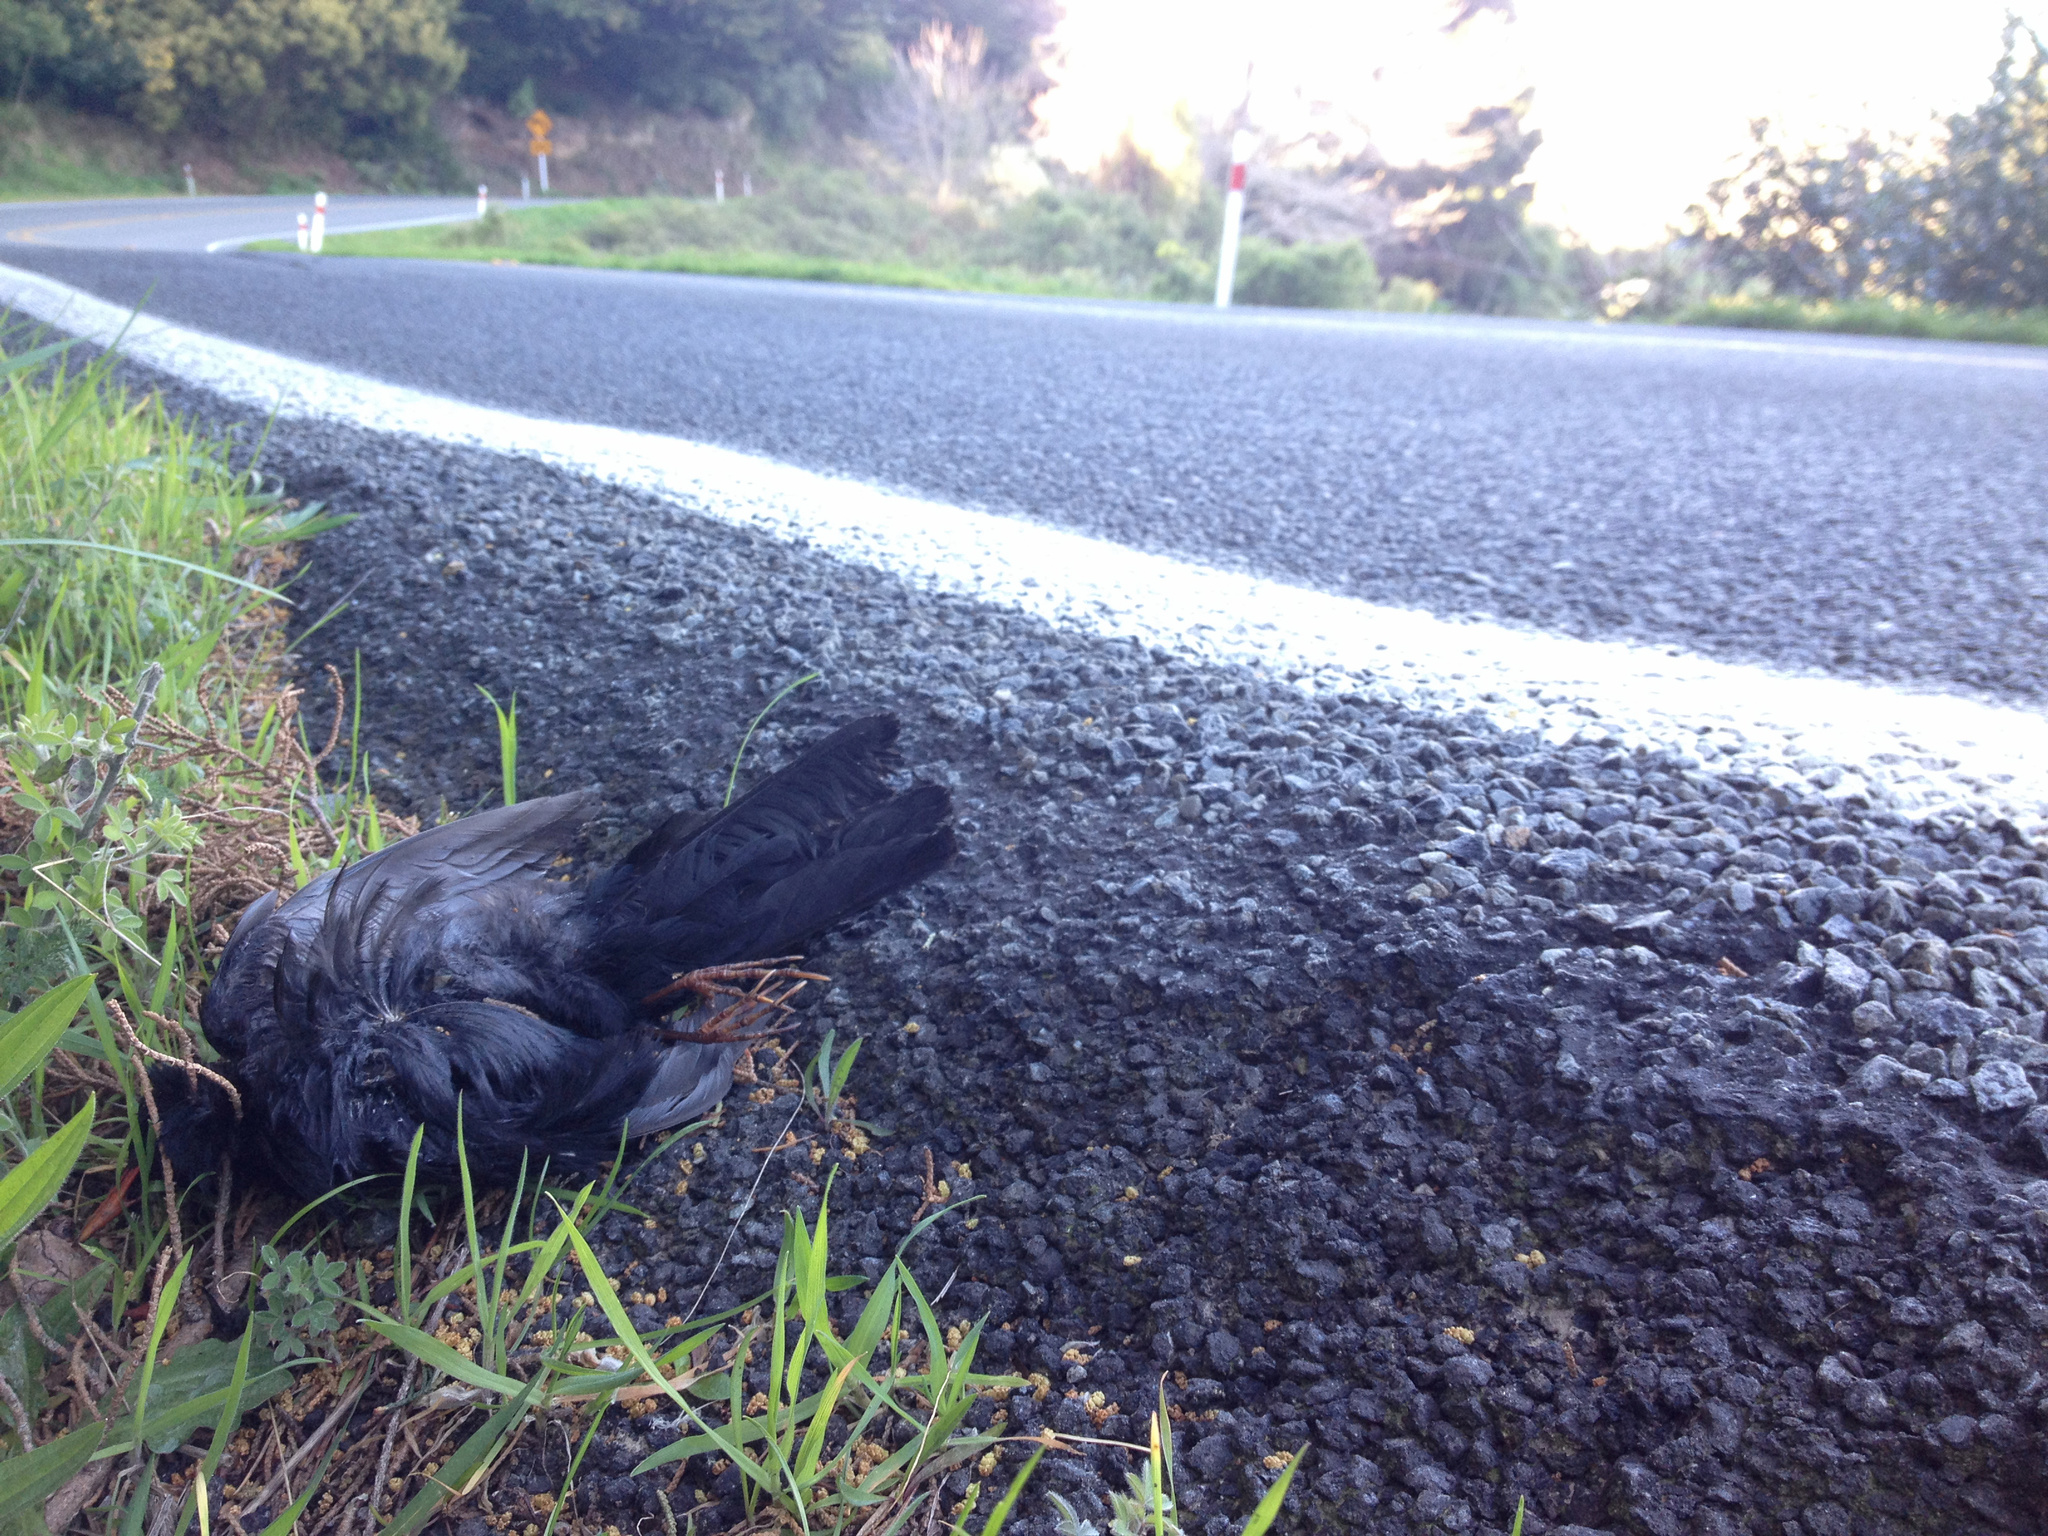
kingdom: Animalia
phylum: Chordata
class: Aves
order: Passeriformes
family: Turdidae
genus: Turdus
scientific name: Turdus merula
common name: Common blackbird
